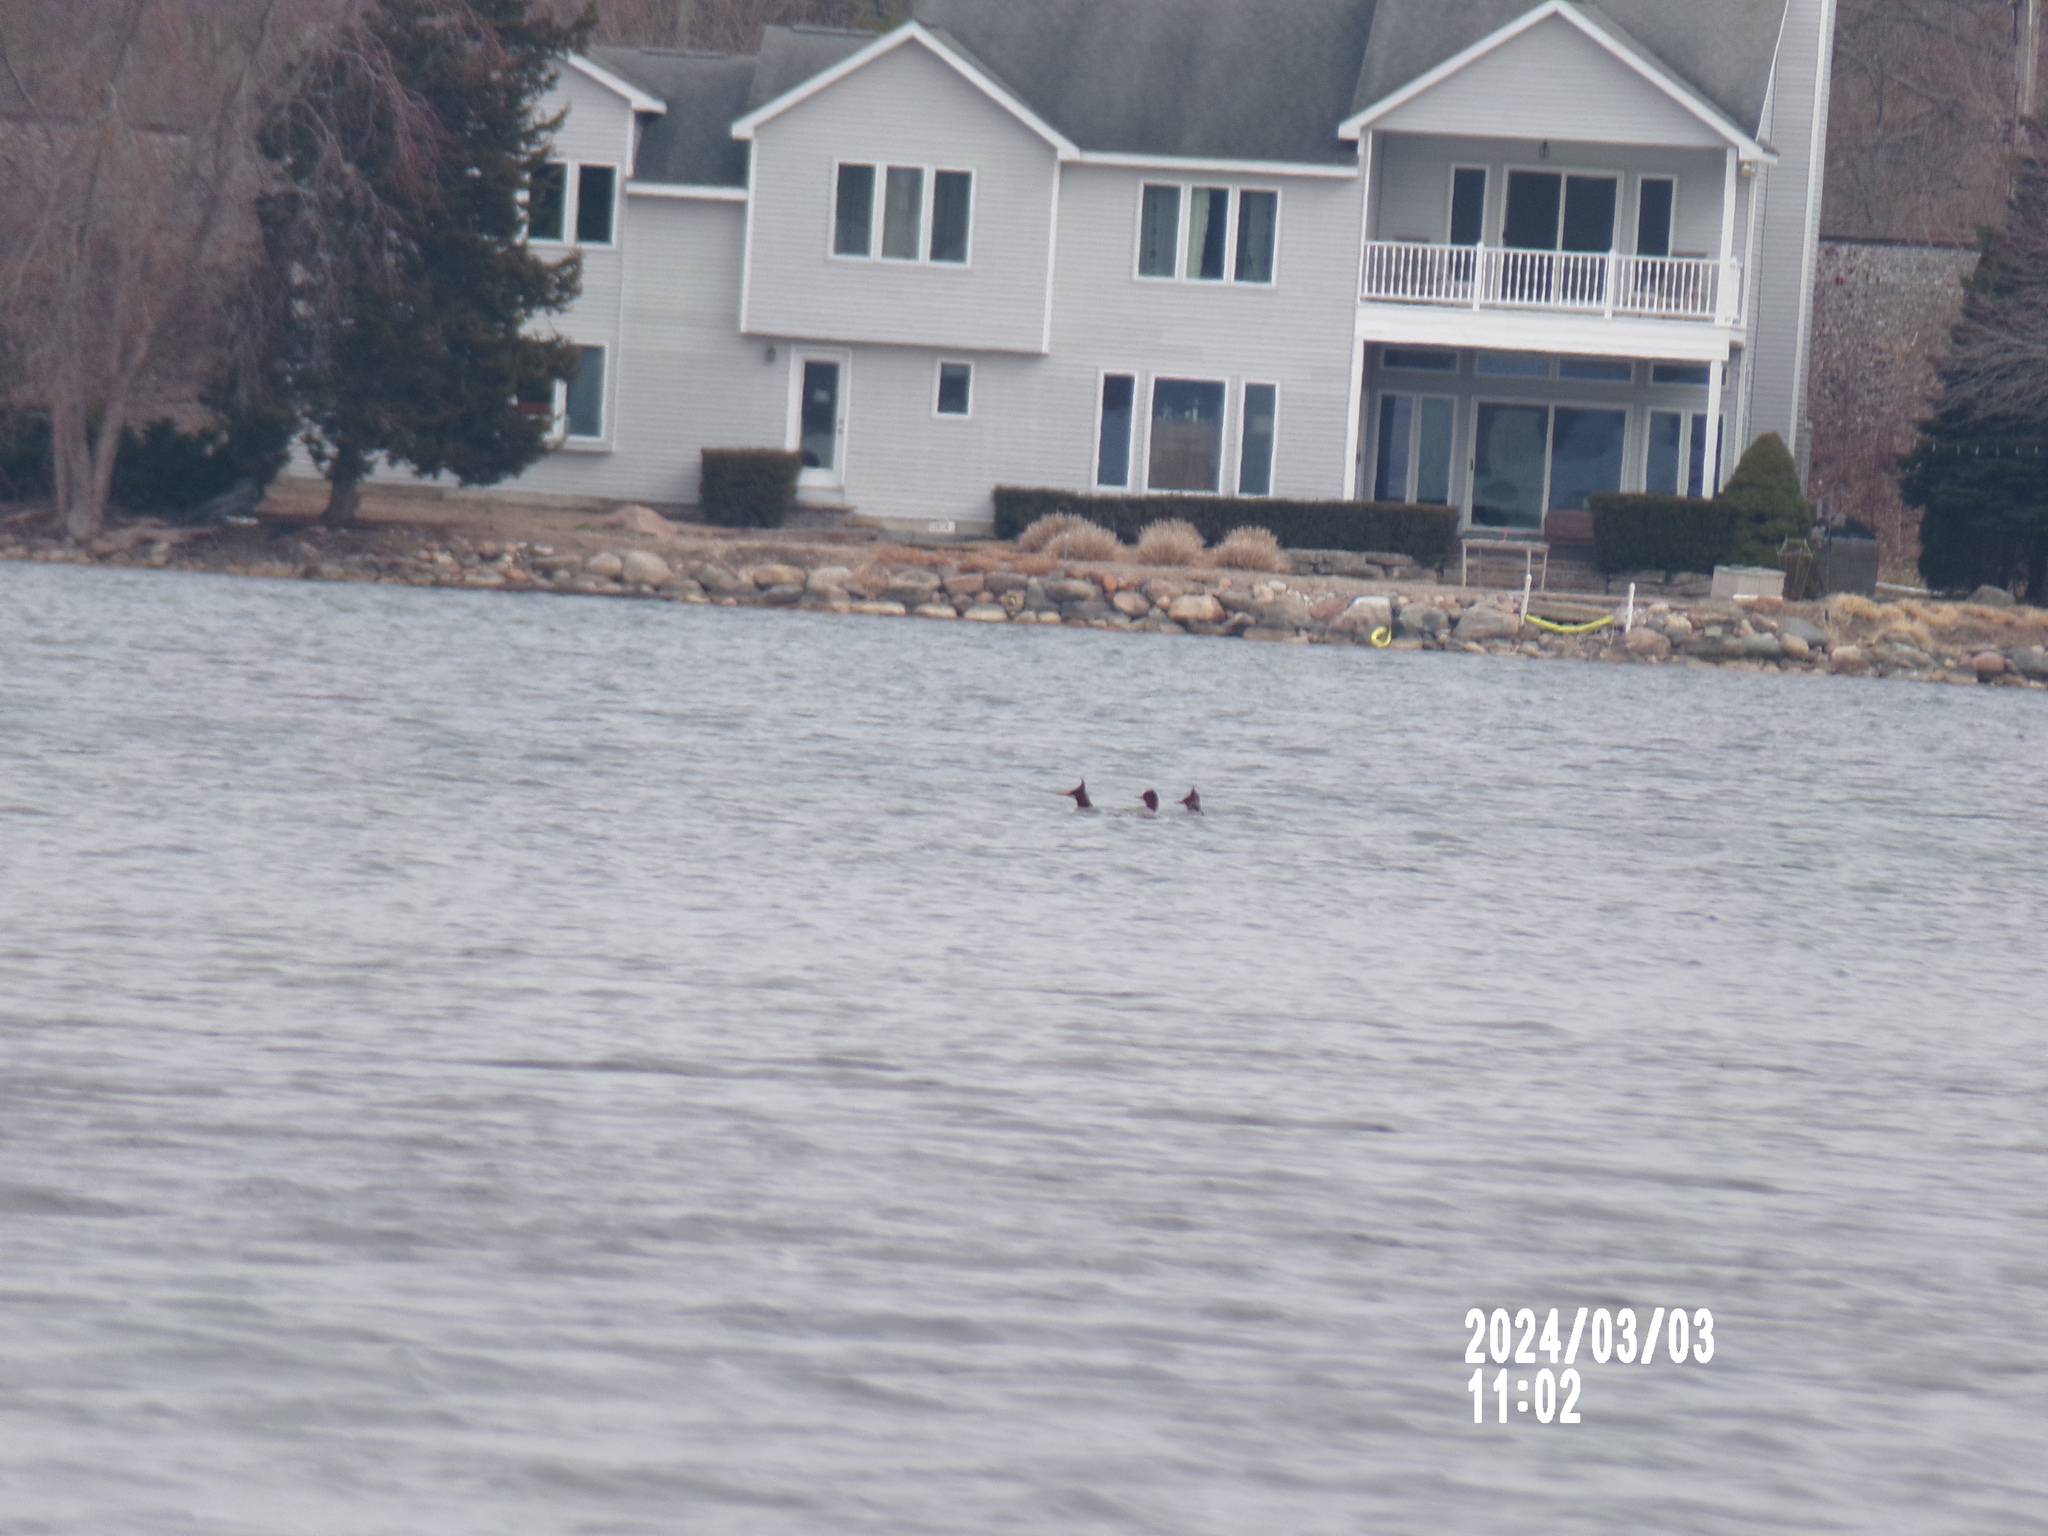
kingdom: Animalia
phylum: Chordata
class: Aves
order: Anseriformes
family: Anatidae
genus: Mergus
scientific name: Mergus merganser
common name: Common merganser
